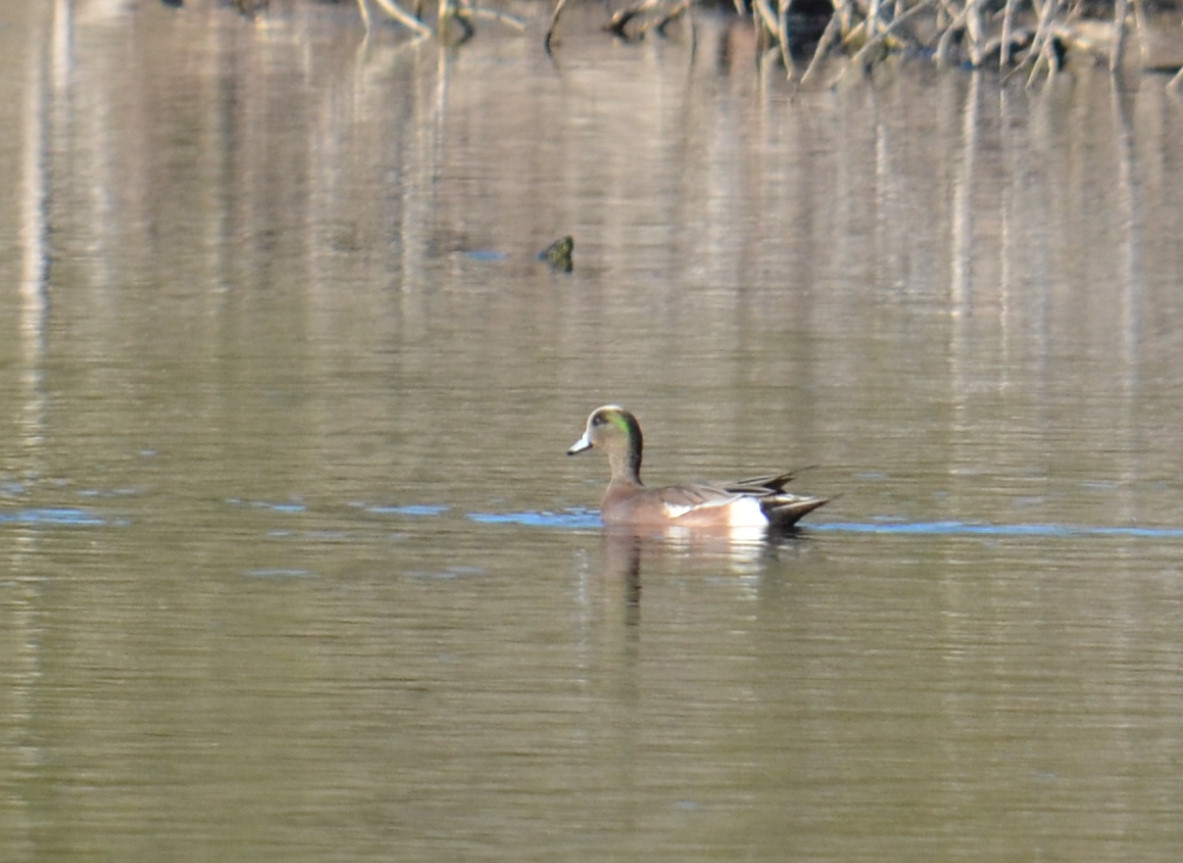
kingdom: Animalia
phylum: Chordata
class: Aves
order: Anseriformes
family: Anatidae
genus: Mareca
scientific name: Mareca americana
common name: American wigeon
